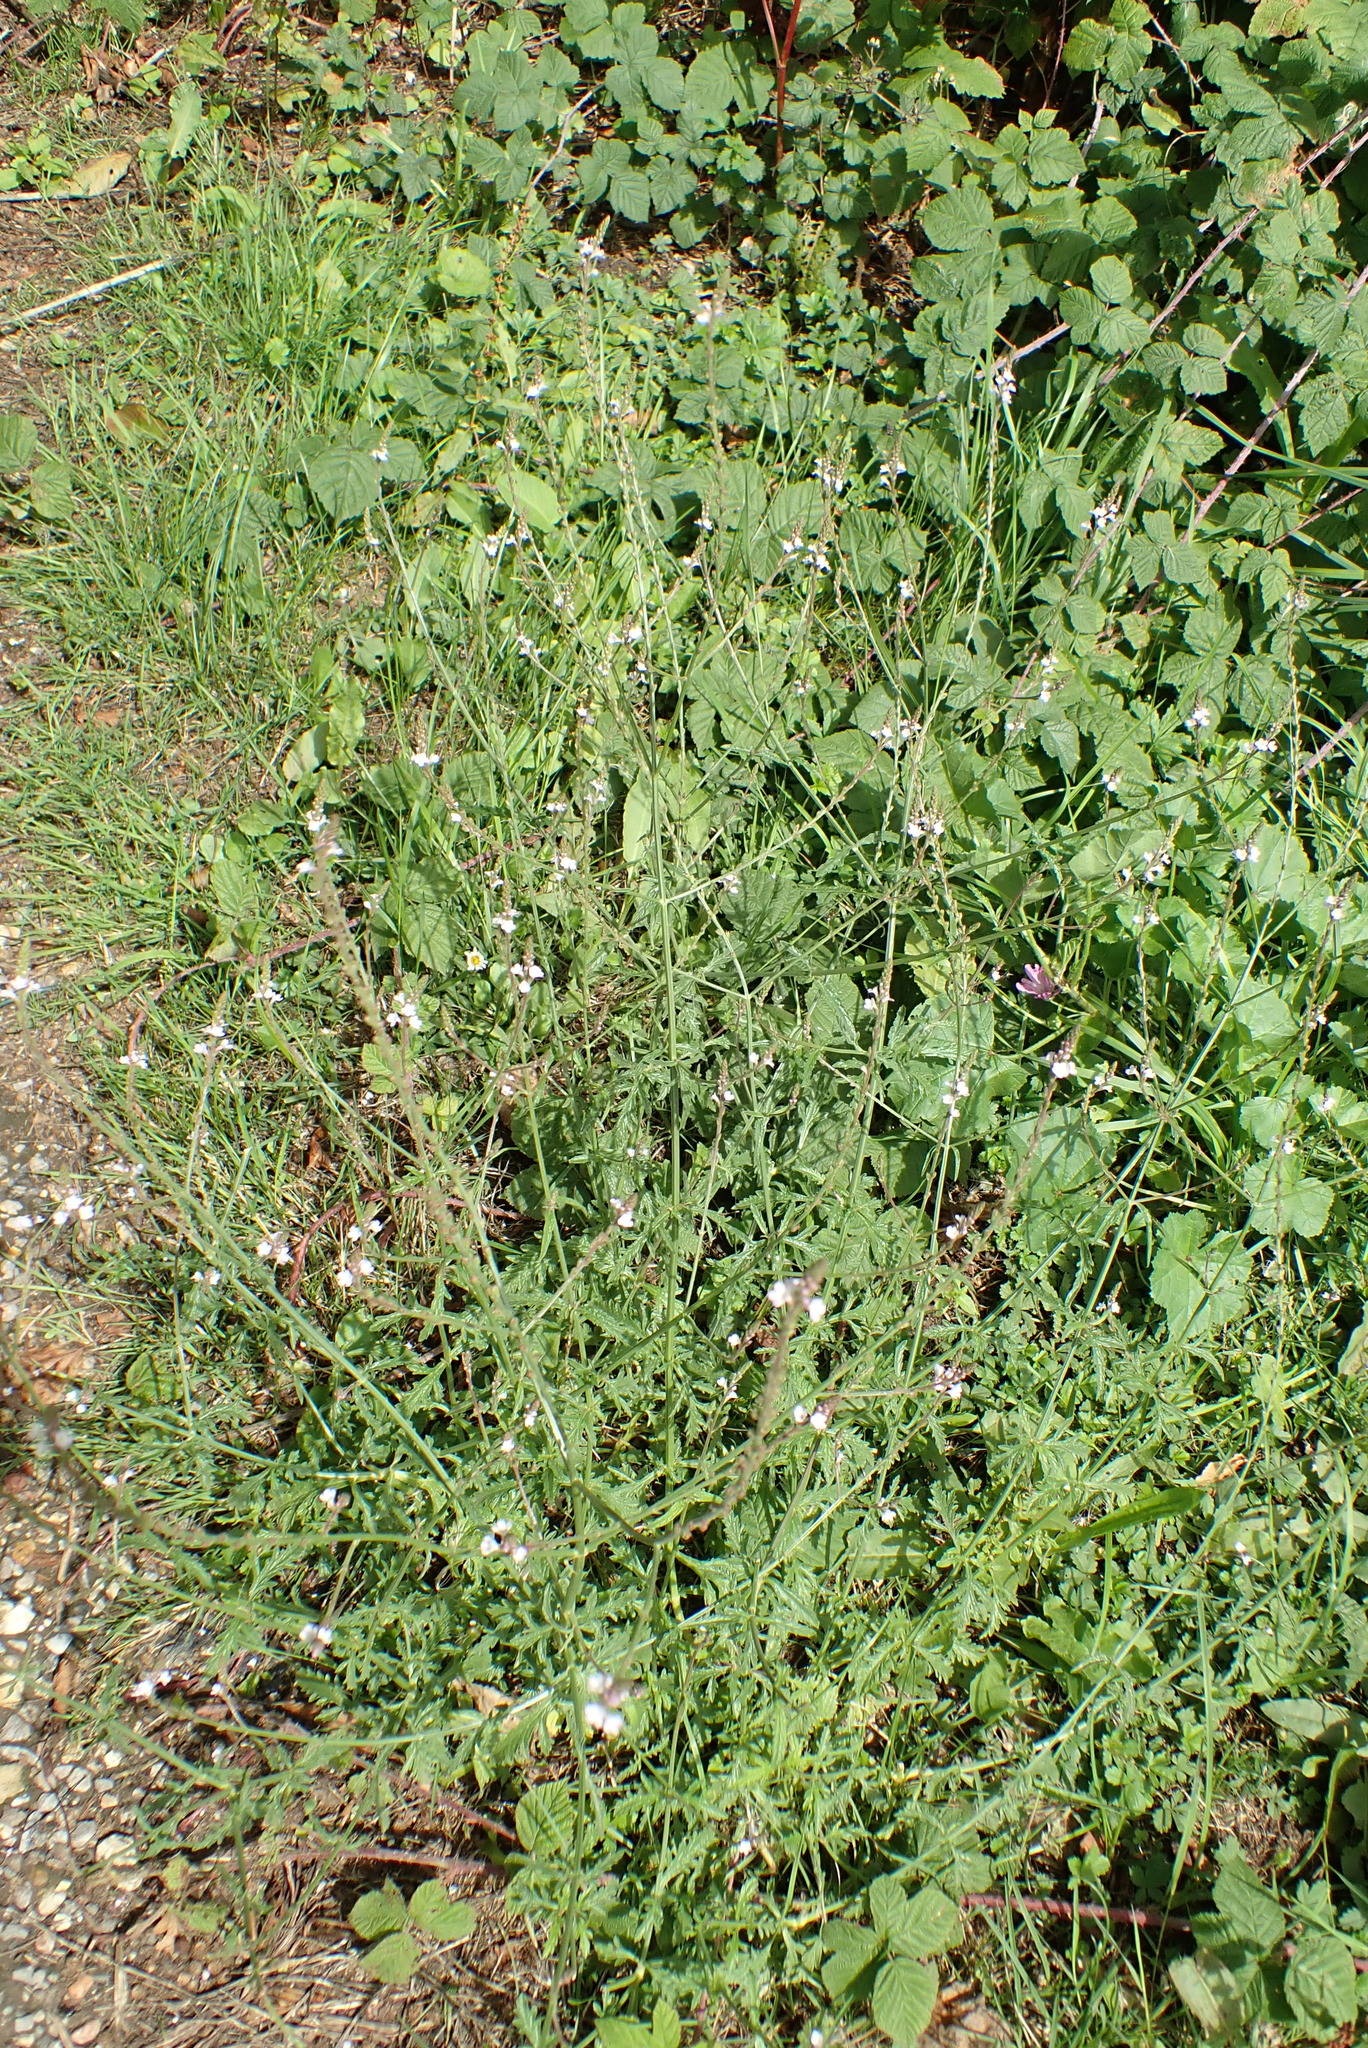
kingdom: Plantae
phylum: Tracheophyta
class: Magnoliopsida
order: Lamiales
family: Verbenaceae
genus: Verbena
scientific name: Verbena officinalis
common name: Vervain
